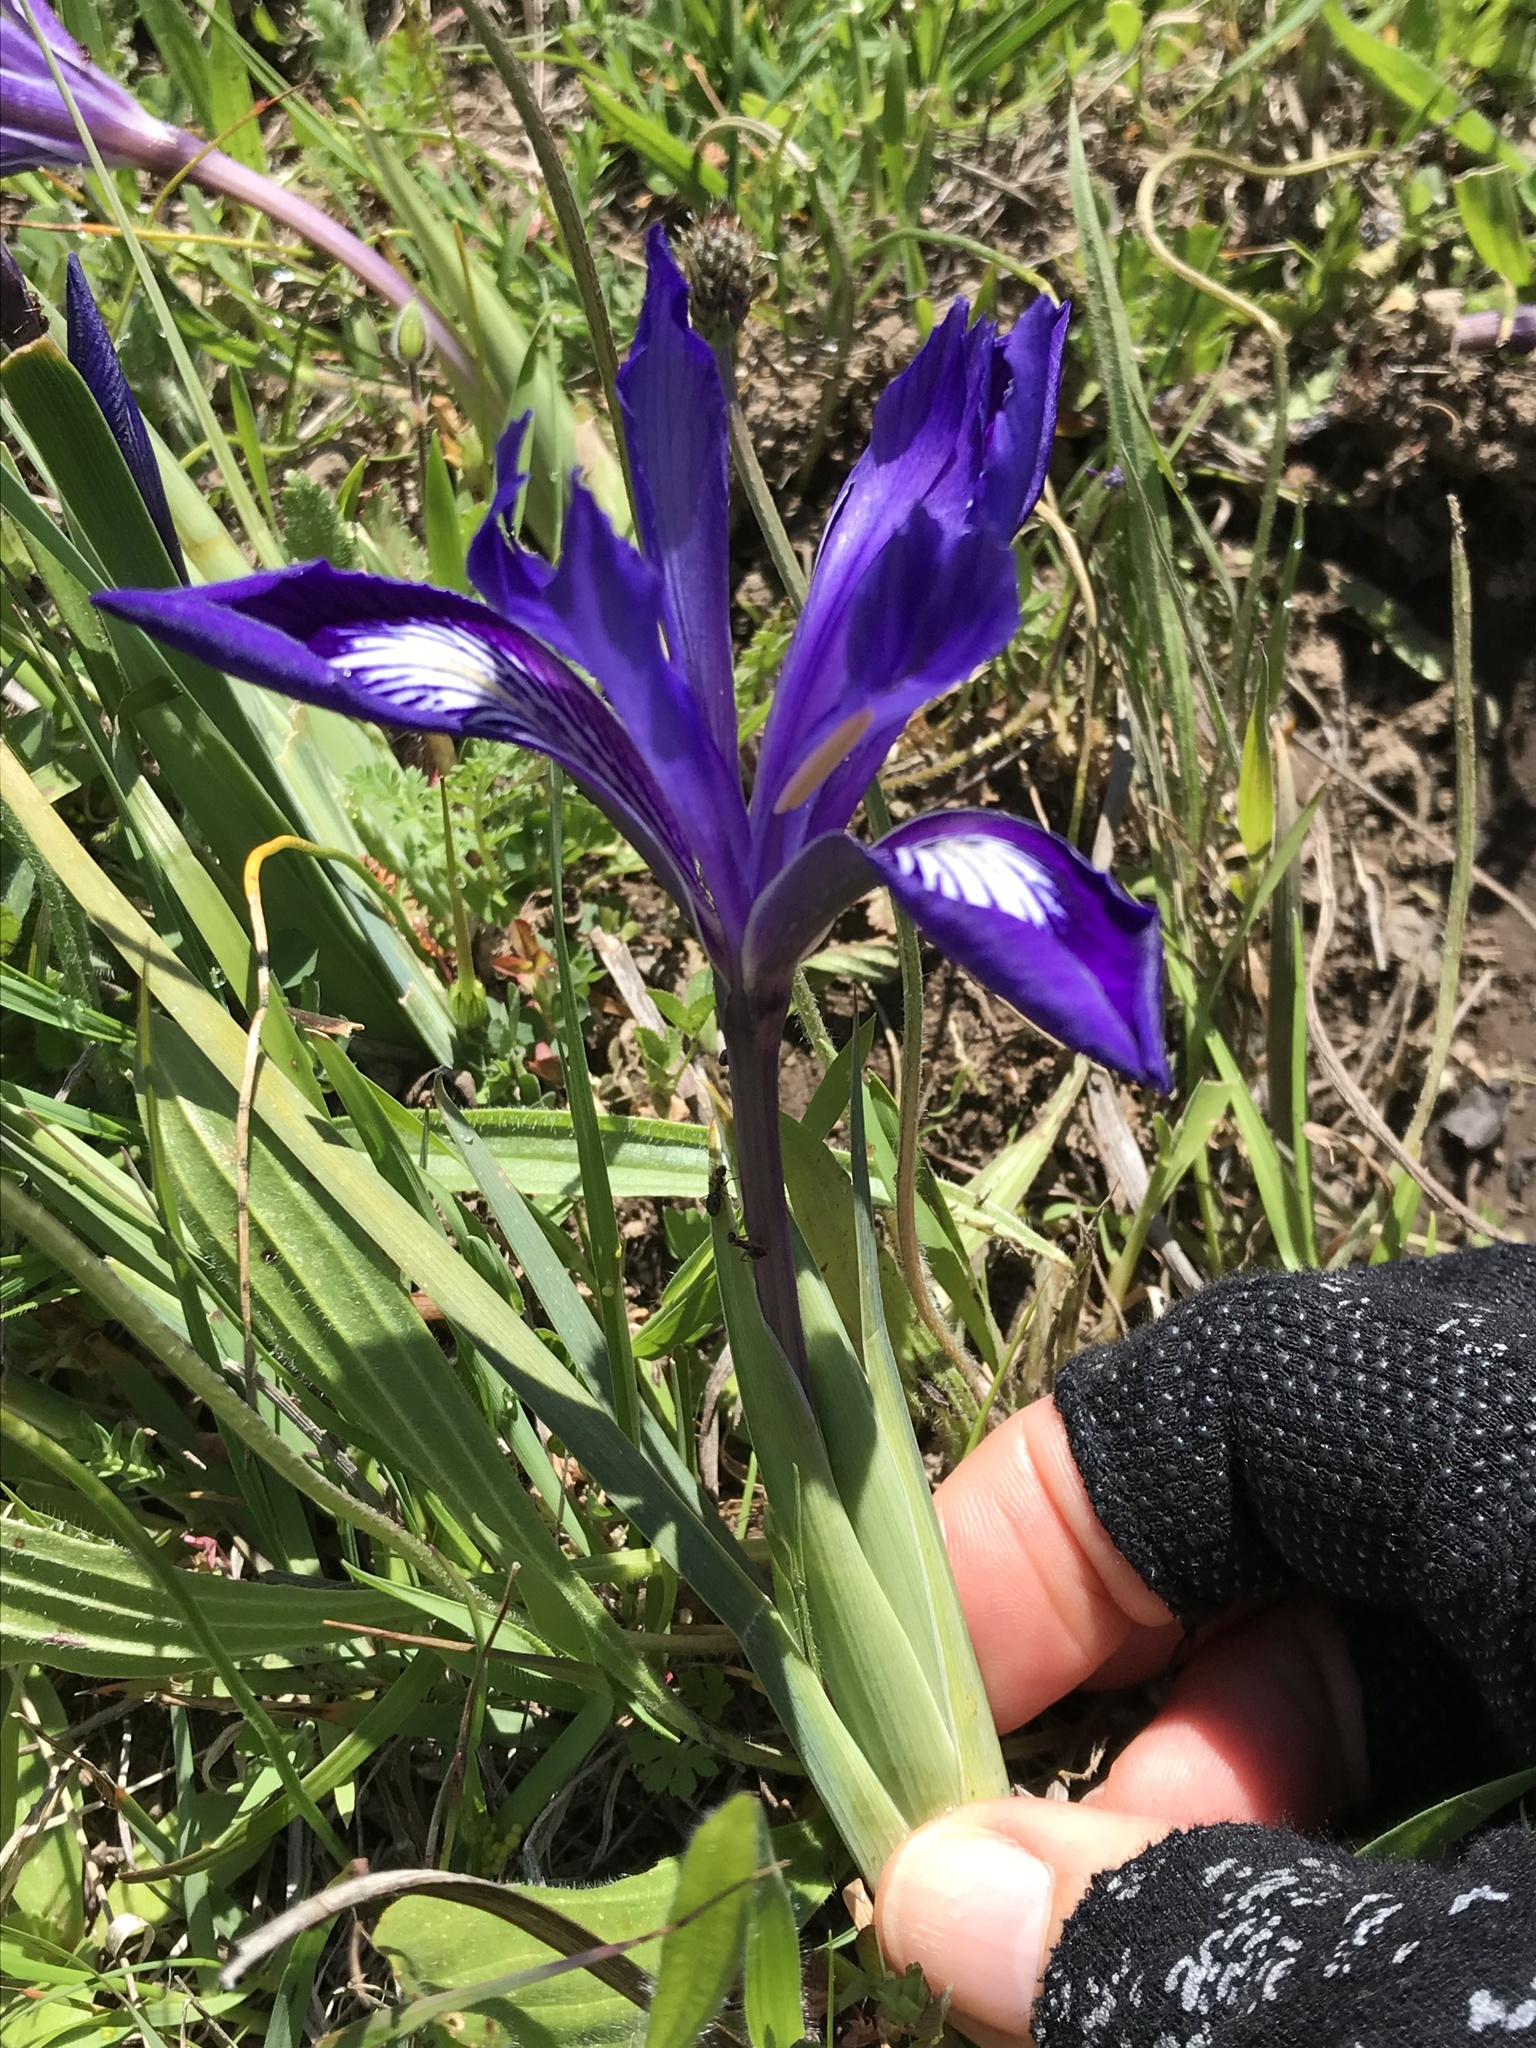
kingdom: Plantae
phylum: Tracheophyta
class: Liliopsida
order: Asparagales
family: Iridaceae
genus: Iris
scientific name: Iris douglasiana
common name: Marin iris
